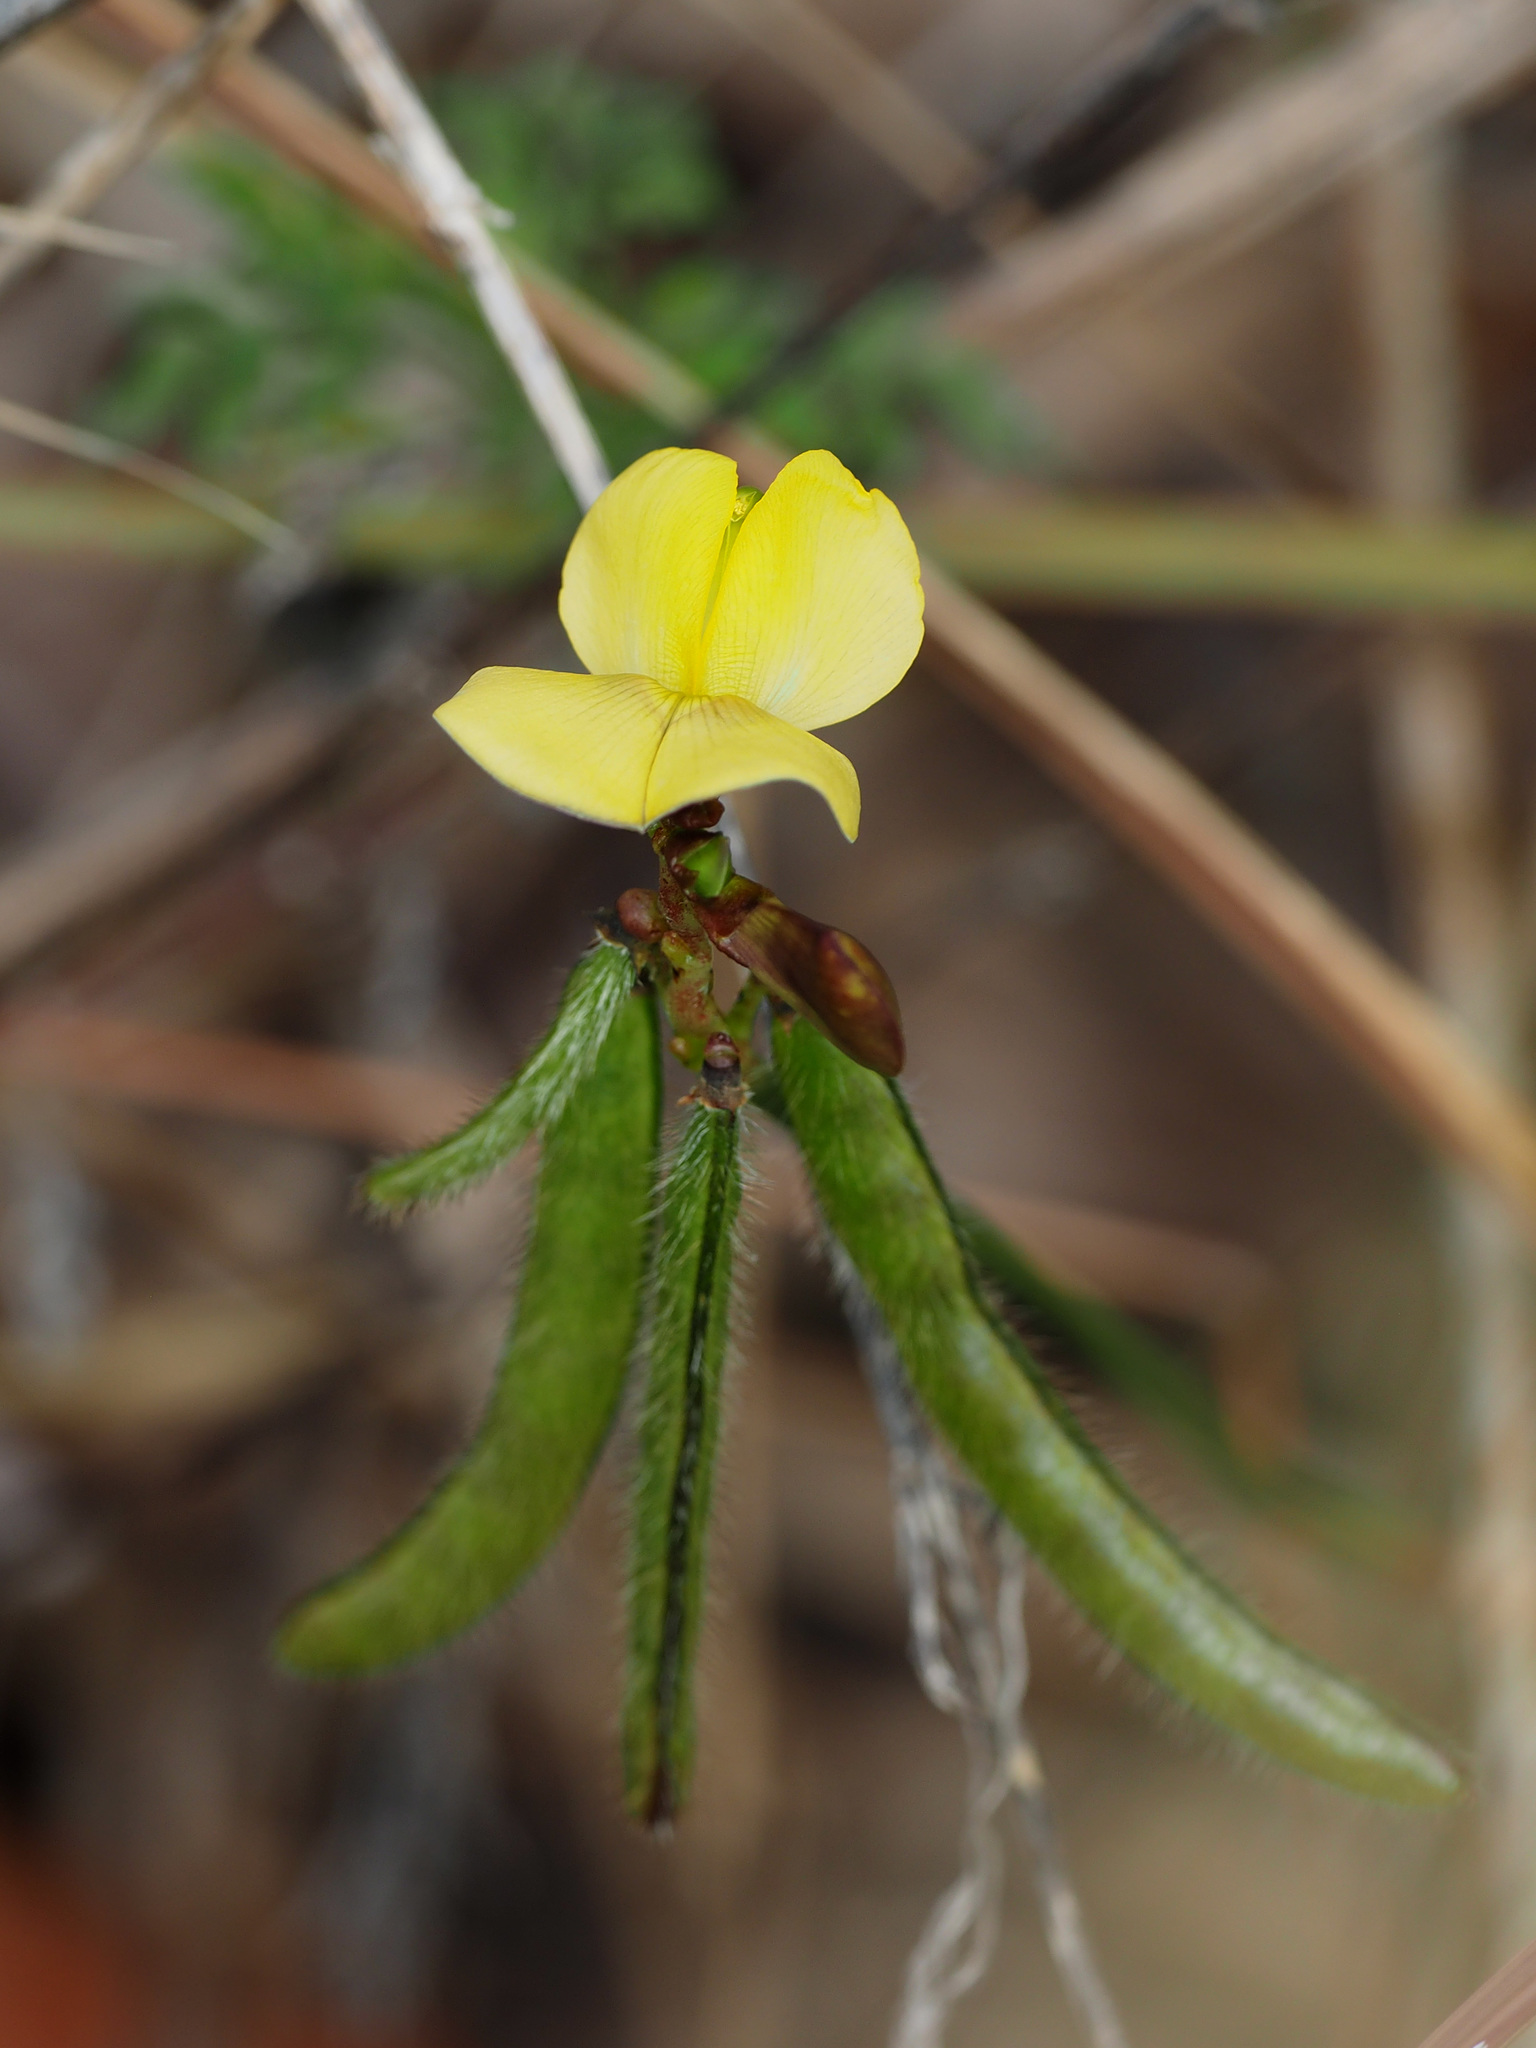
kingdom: Plantae
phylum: Tracheophyta
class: Magnoliopsida
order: Fabales
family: Fabaceae
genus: Vigna
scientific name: Vigna luteola
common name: Hairypod cowpea
